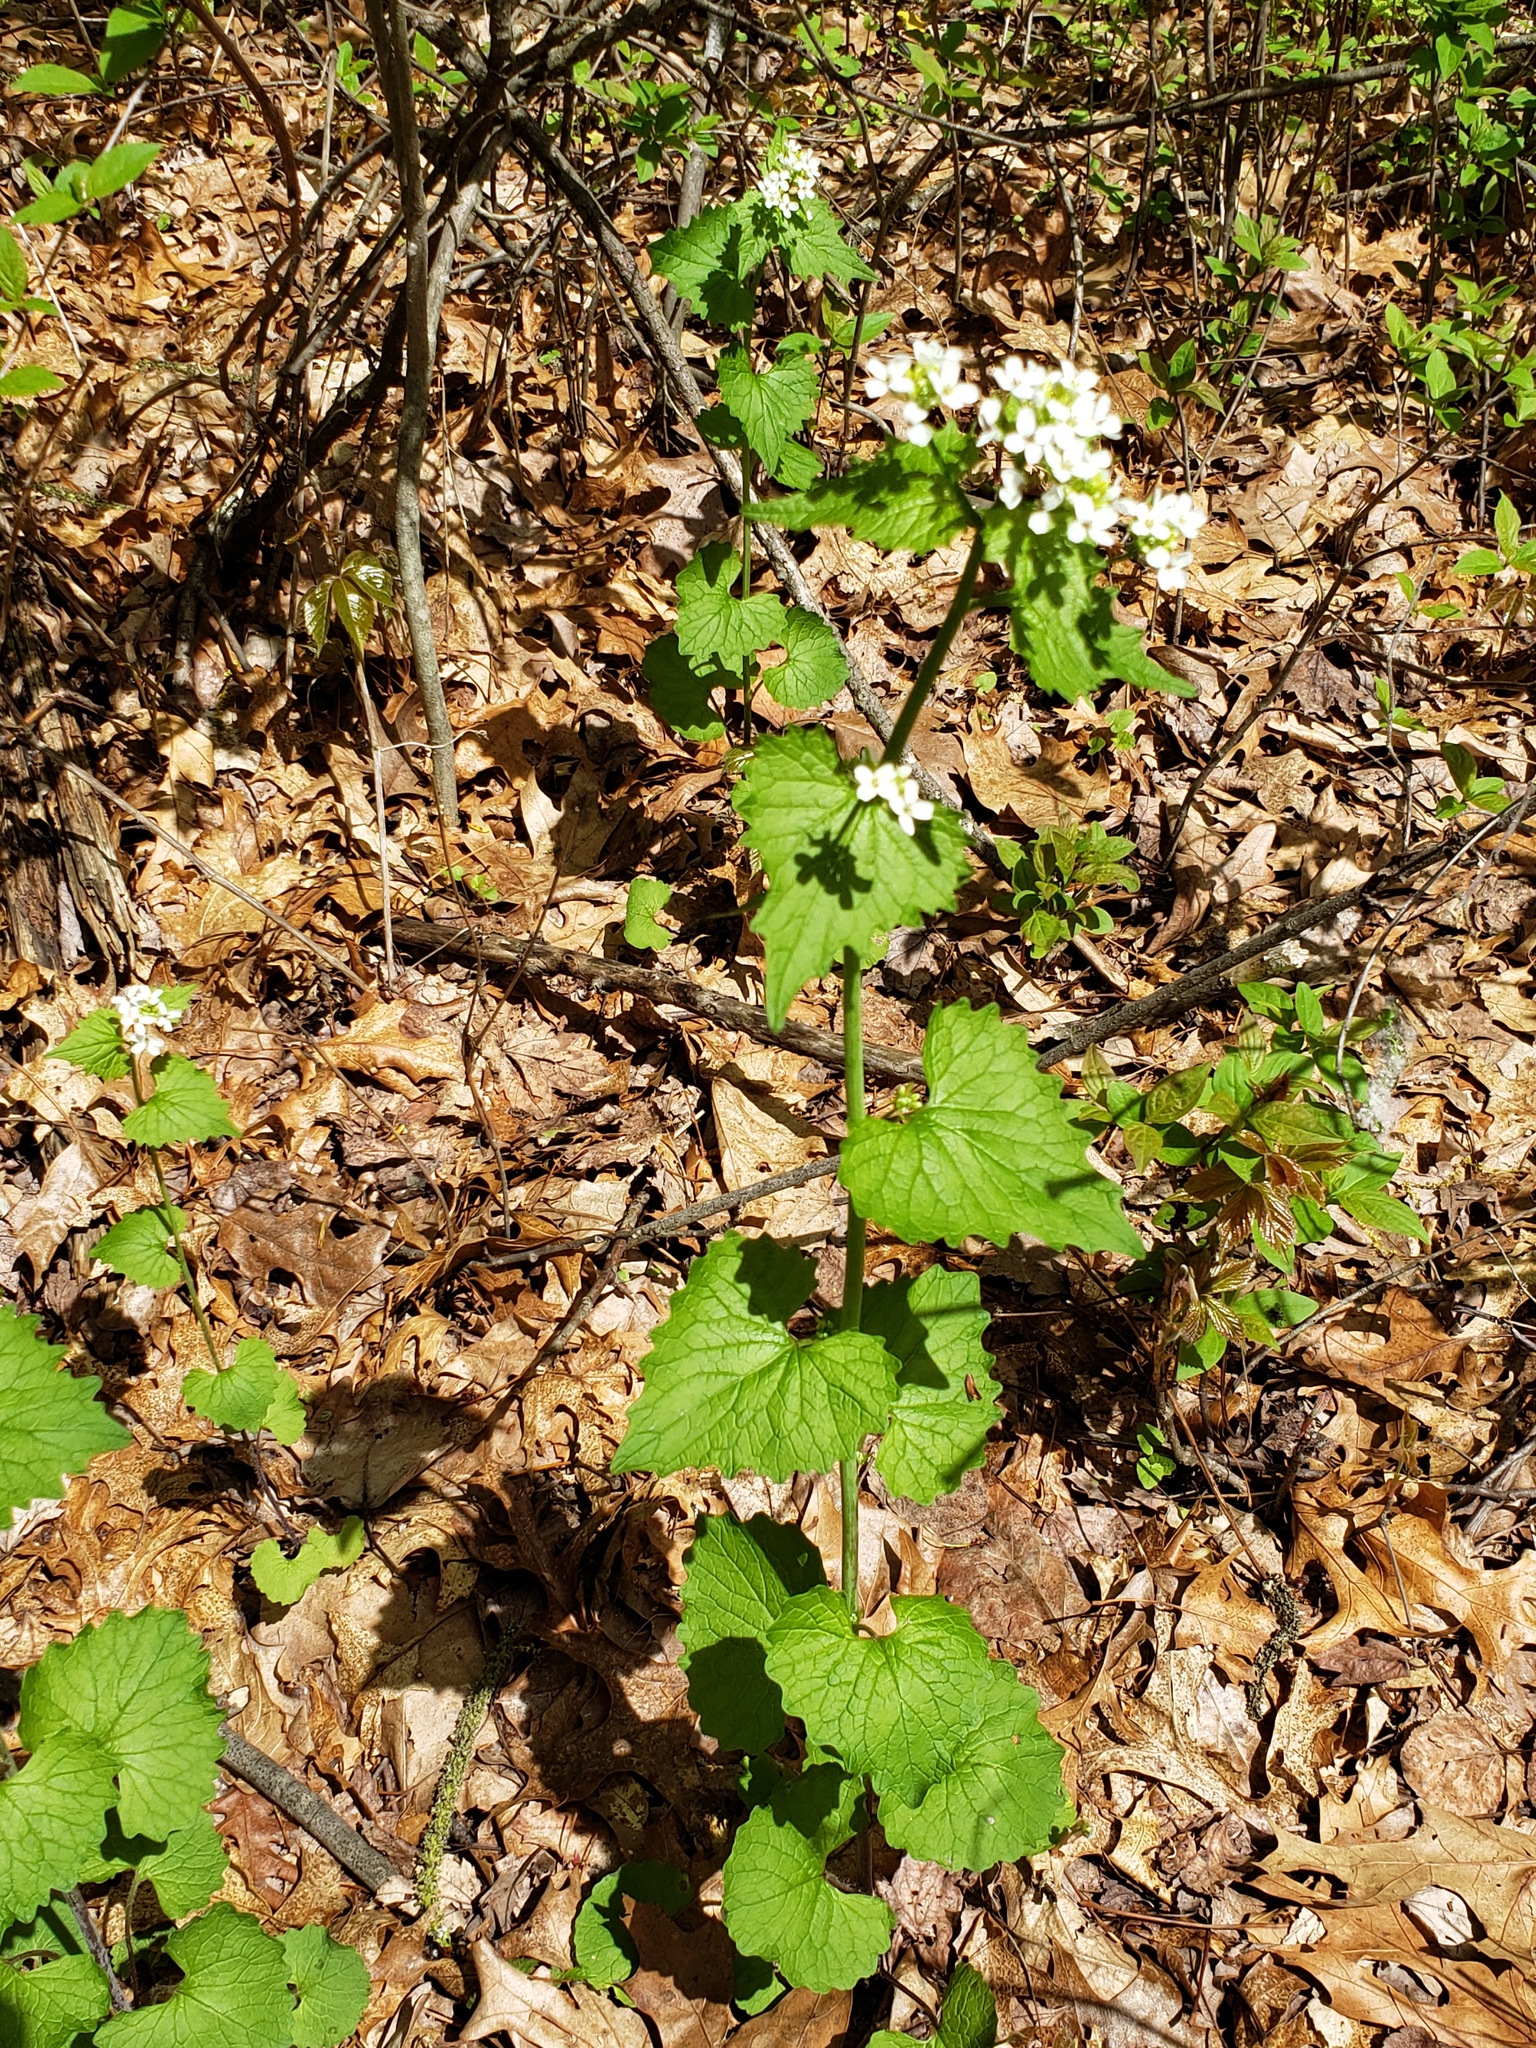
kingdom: Plantae
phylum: Tracheophyta
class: Magnoliopsida
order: Brassicales
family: Brassicaceae
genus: Alliaria
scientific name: Alliaria petiolata
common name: Garlic mustard
